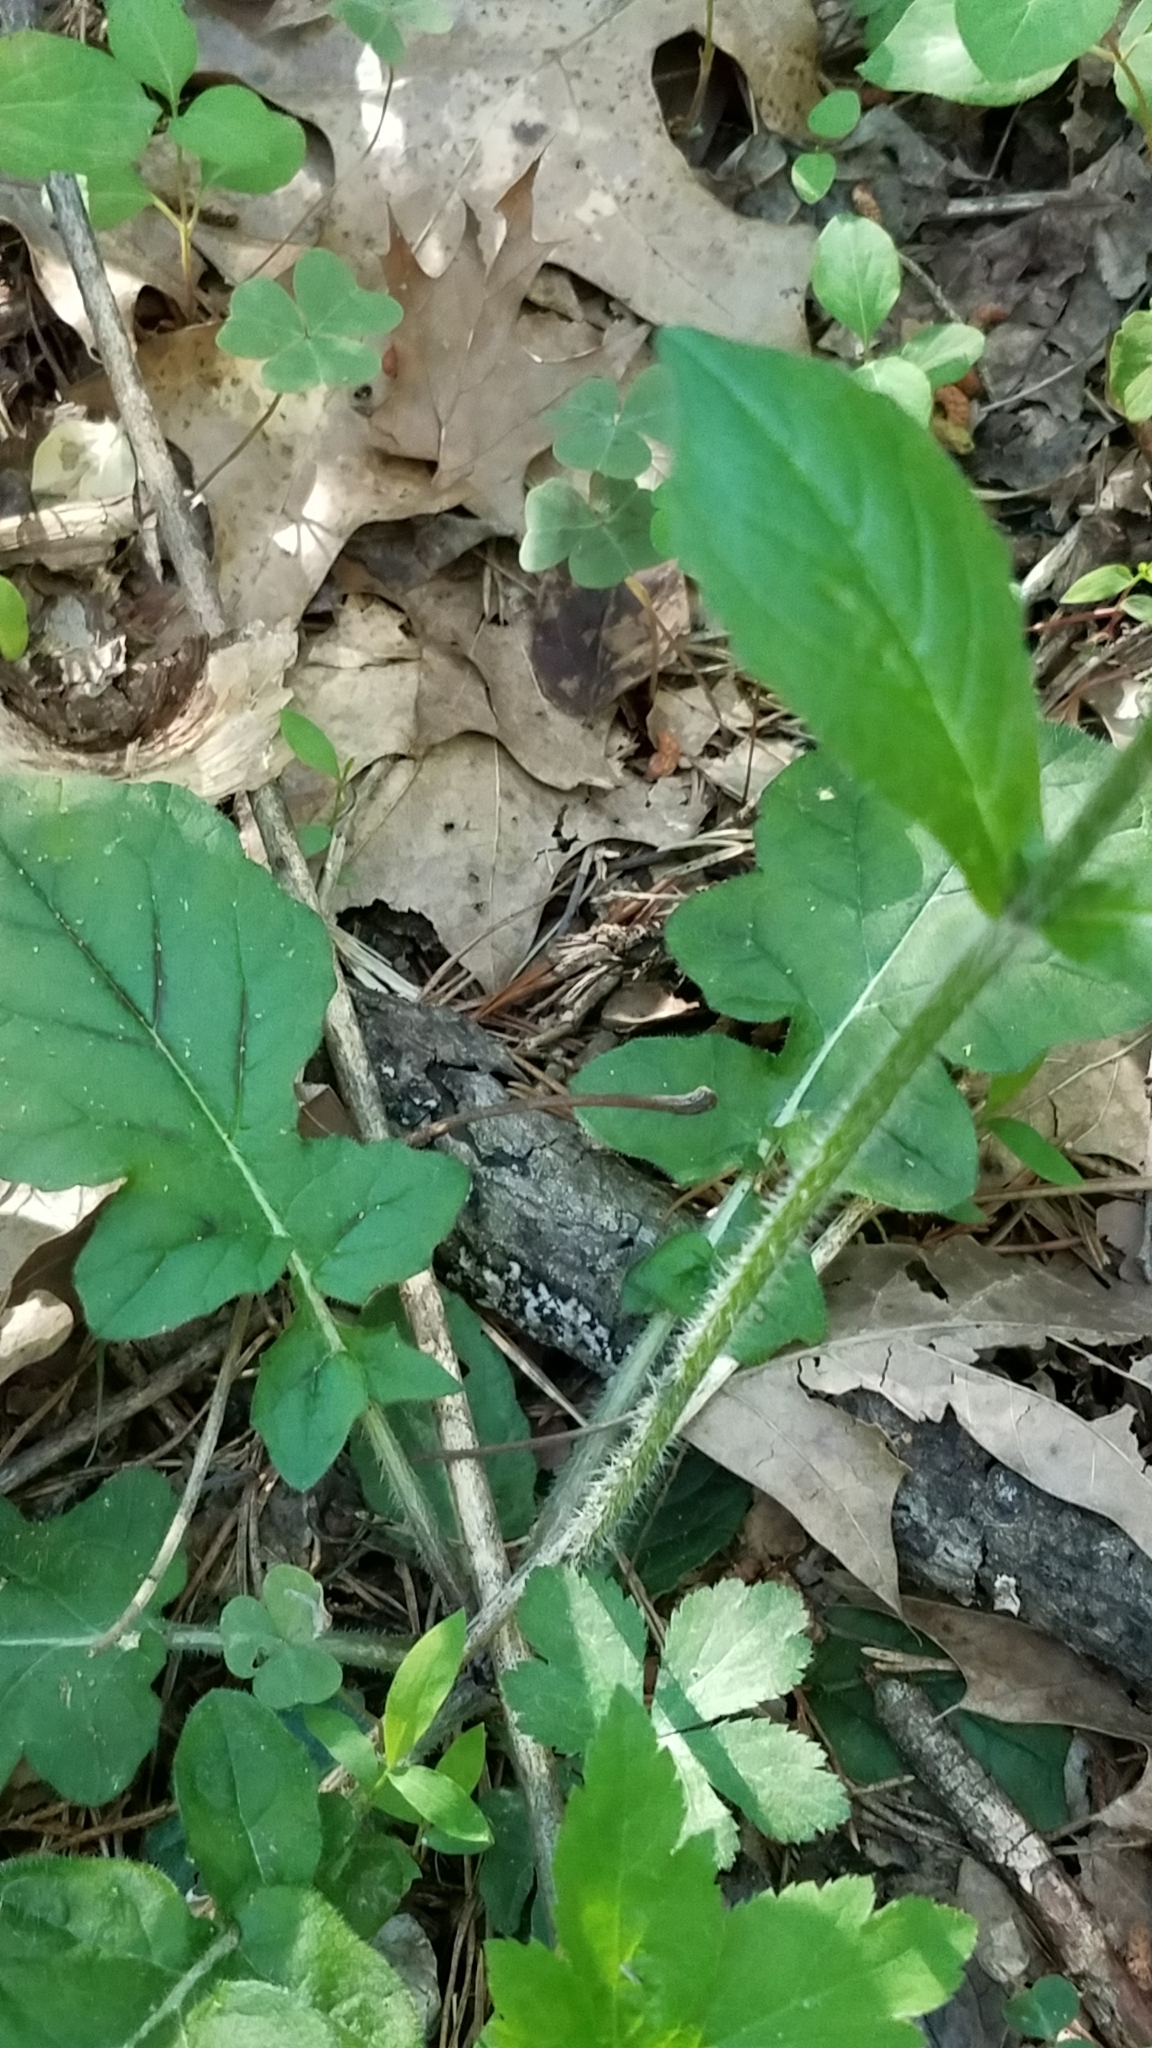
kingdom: Plantae
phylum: Tracheophyta
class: Magnoliopsida
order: Lamiales
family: Lamiaceae
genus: Salvia
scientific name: Salvia lyrata
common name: Cancerweed
